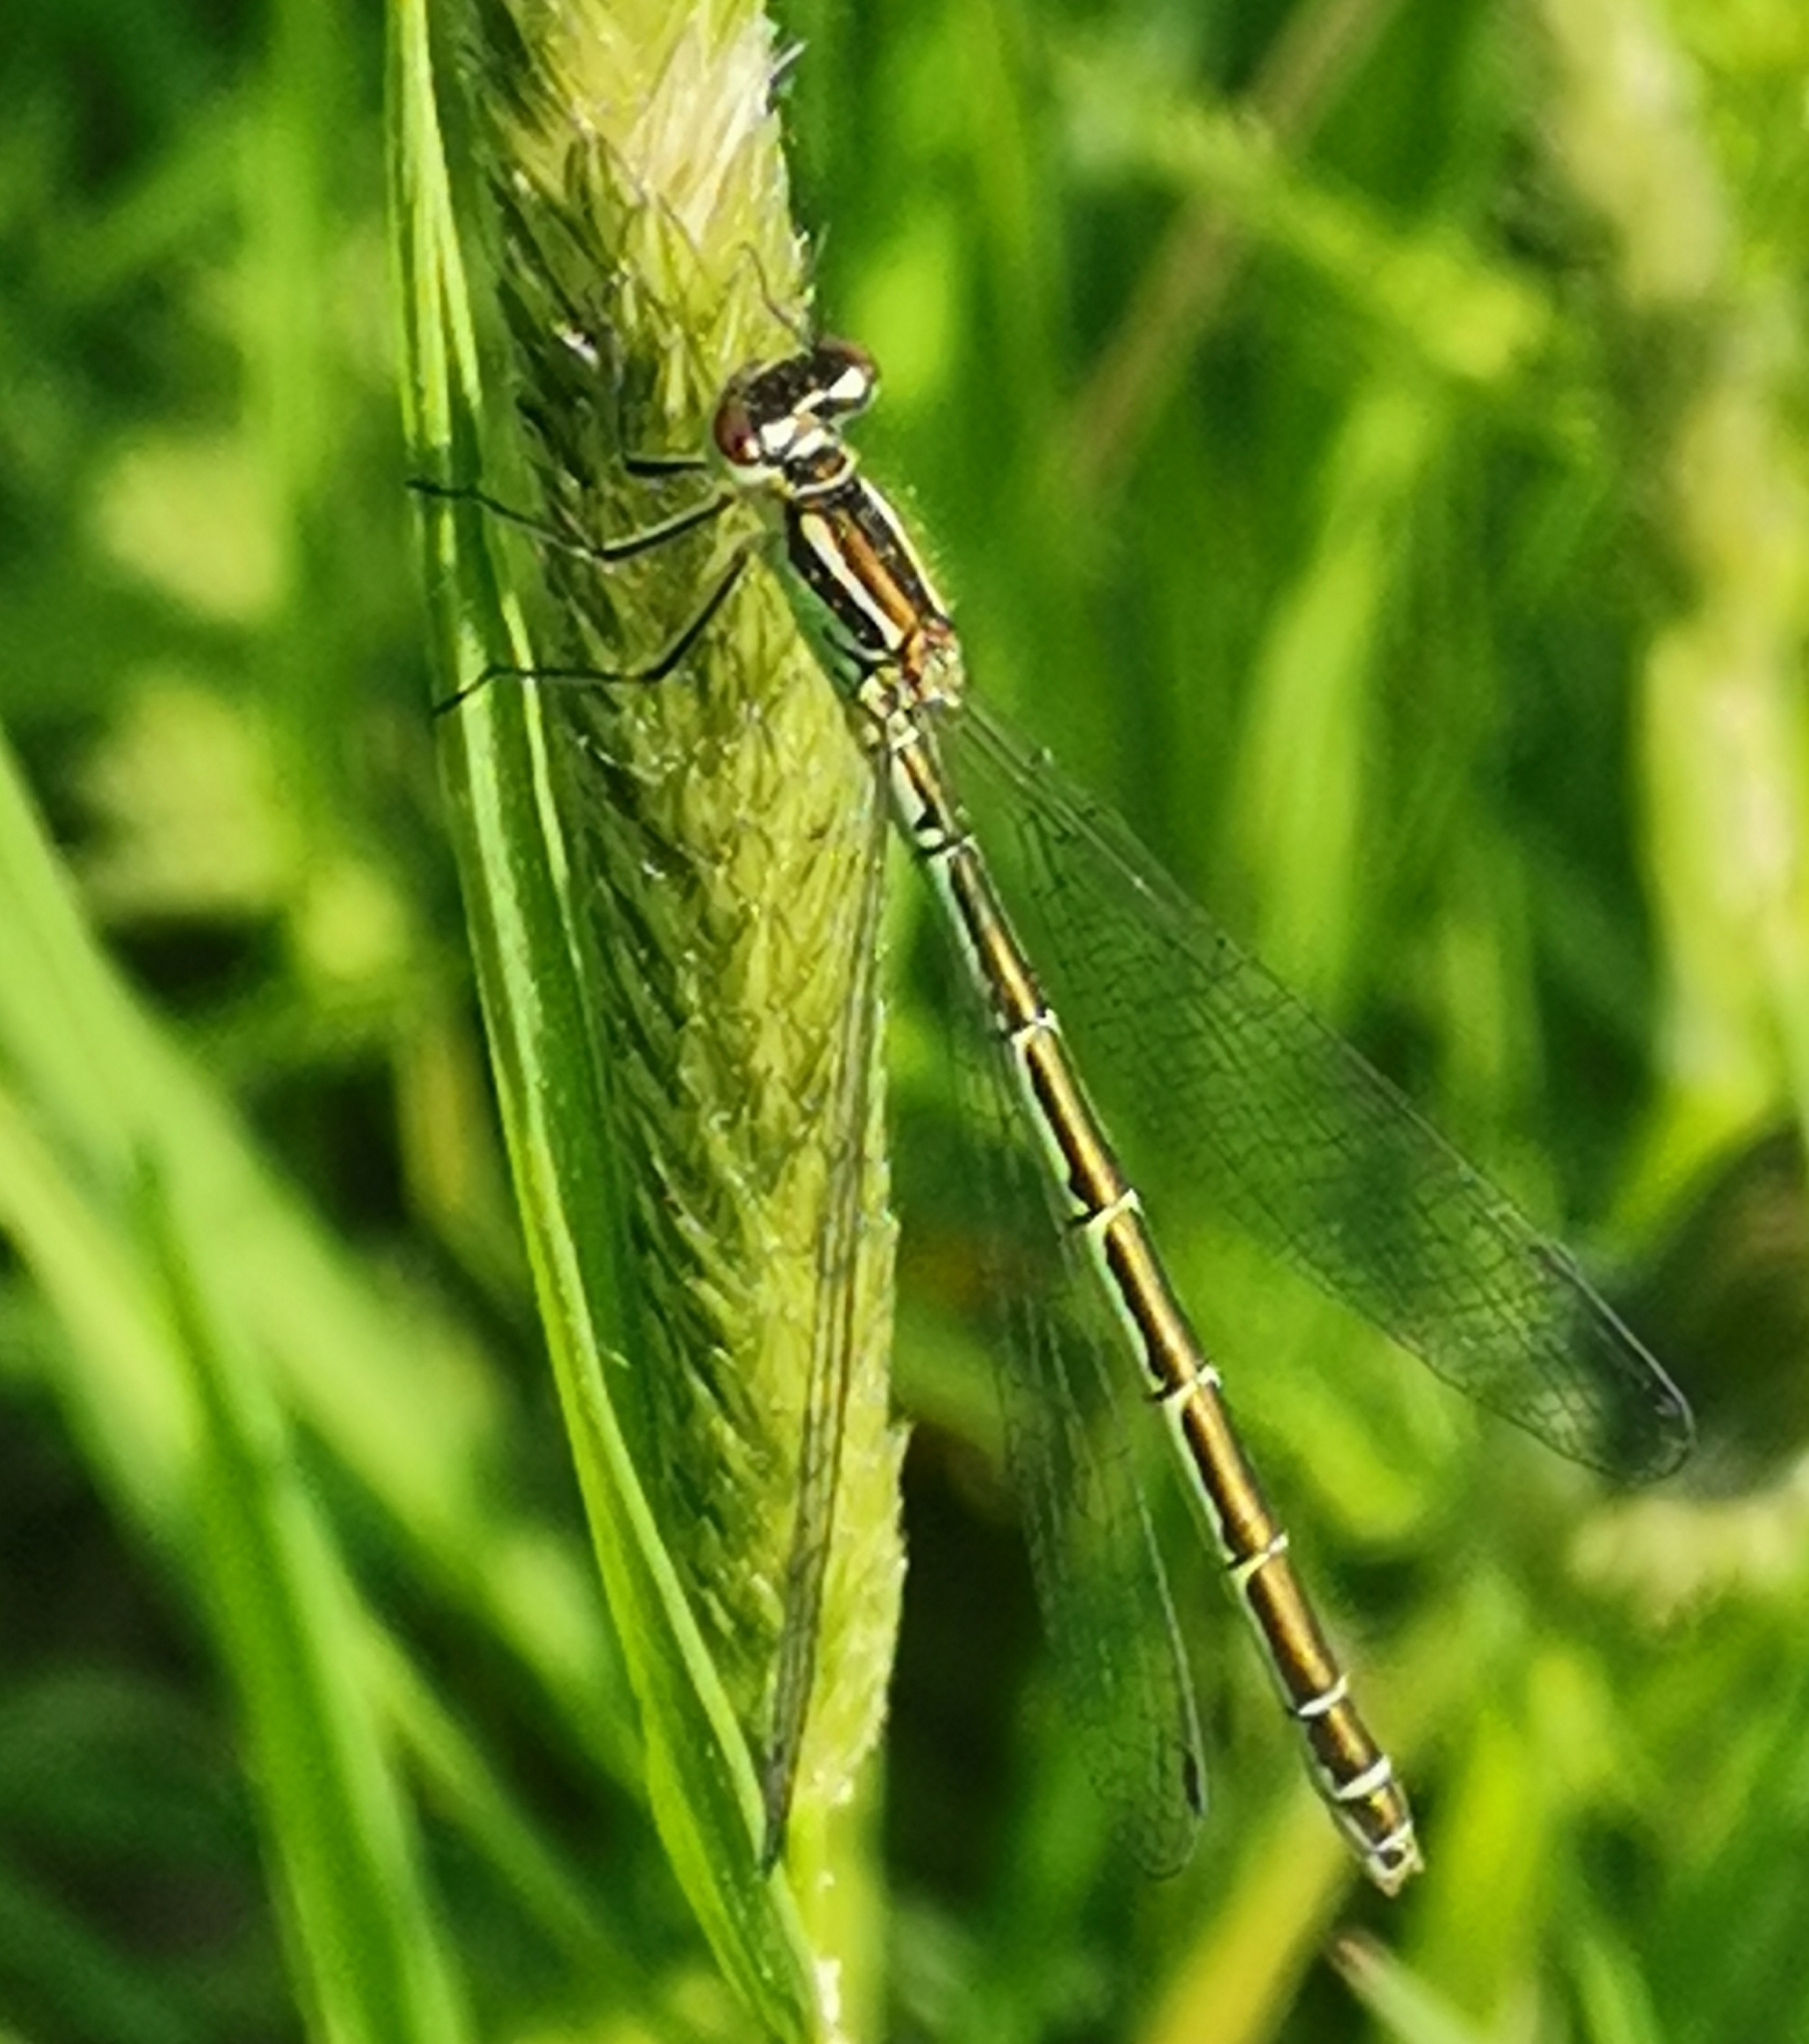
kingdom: Animalia
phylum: Arthropoda
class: Insecta
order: Odonata
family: Coenagrionidae
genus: Coenagrion
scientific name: Coenagrion hastulatum
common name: Spearhead bluet
